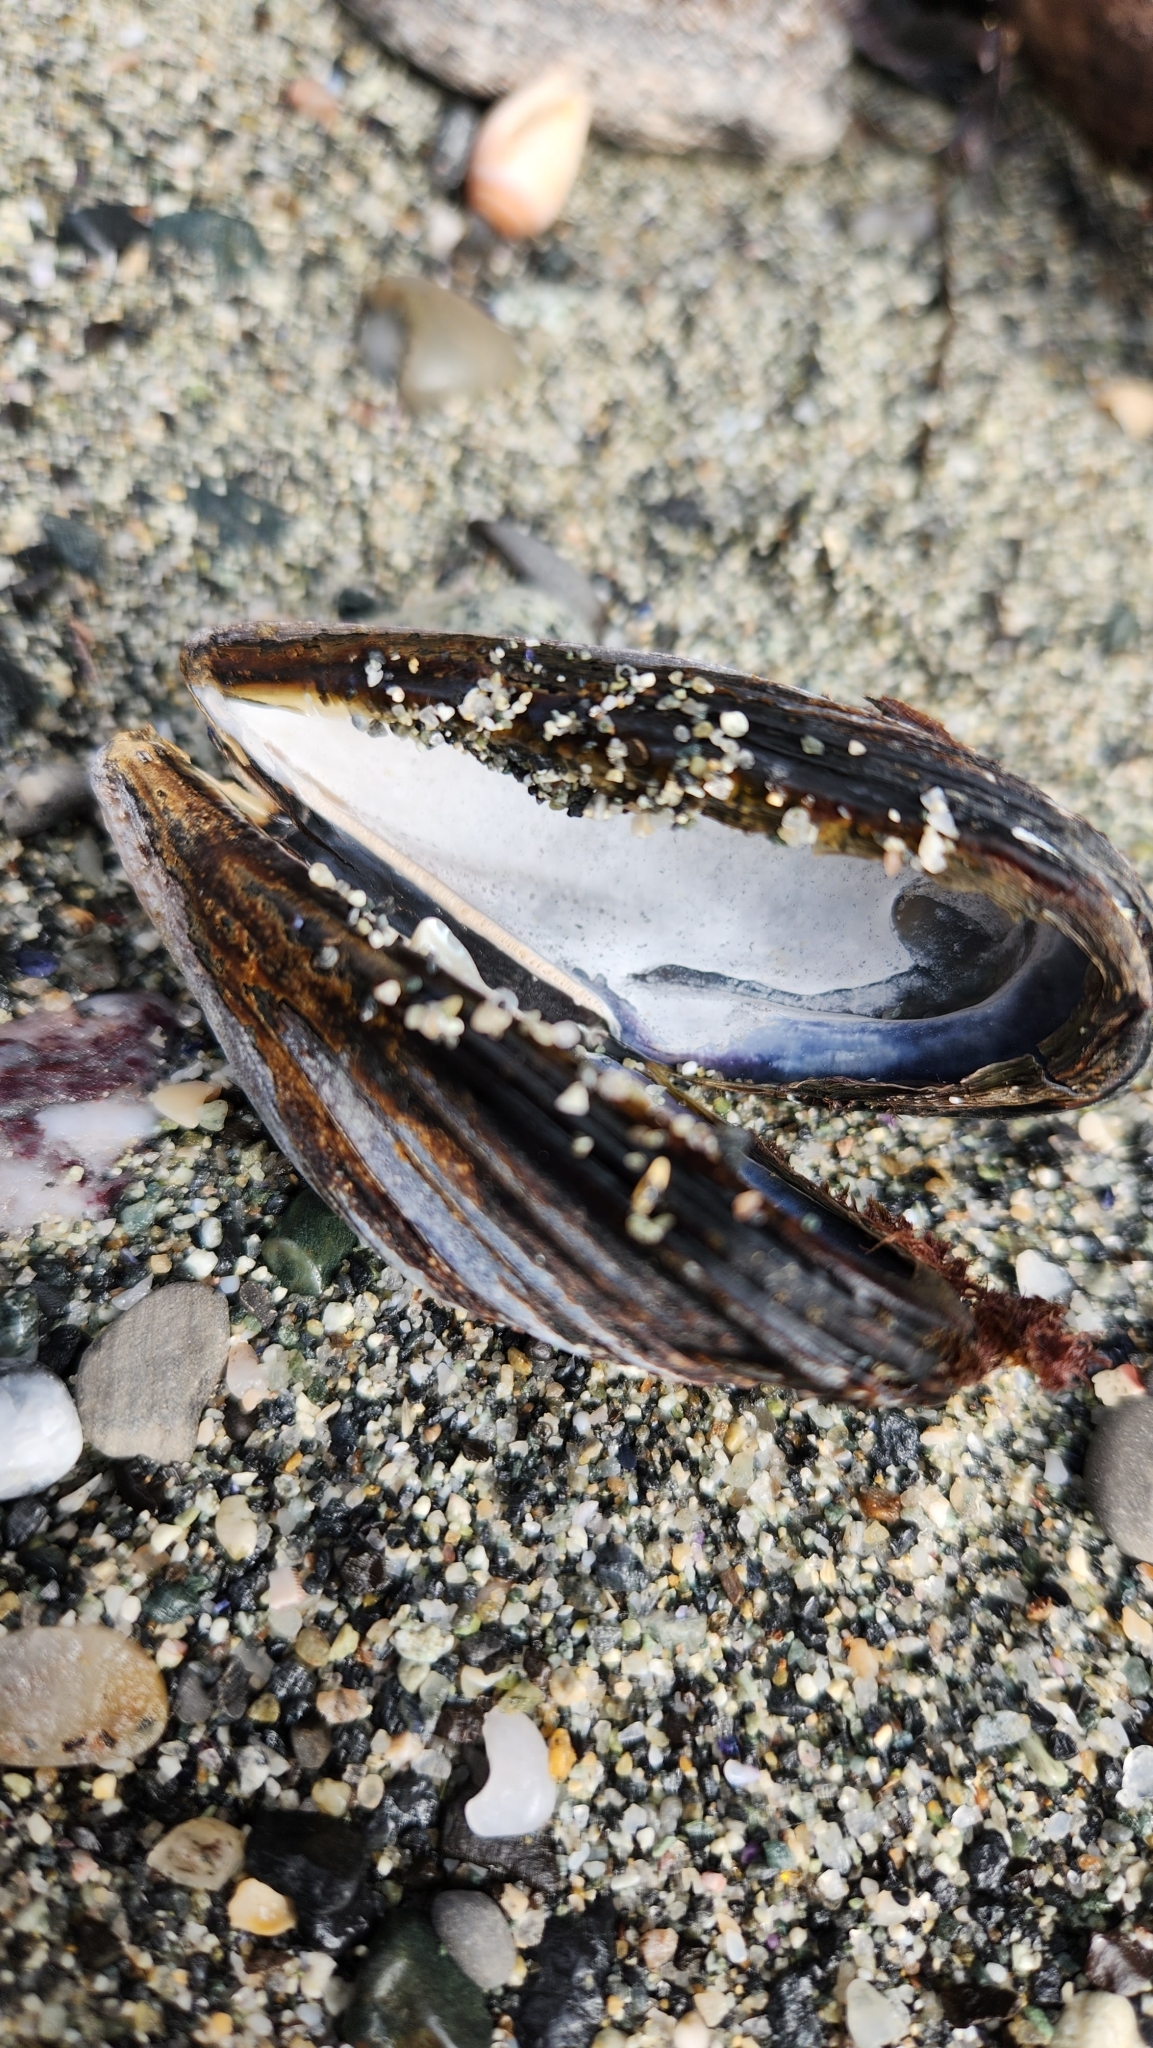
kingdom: Animalia
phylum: Mollusca
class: Bivalvia
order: Mytilida
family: Mytilidae
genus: Mytilus
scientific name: Mytilus californianus
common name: California mussel
